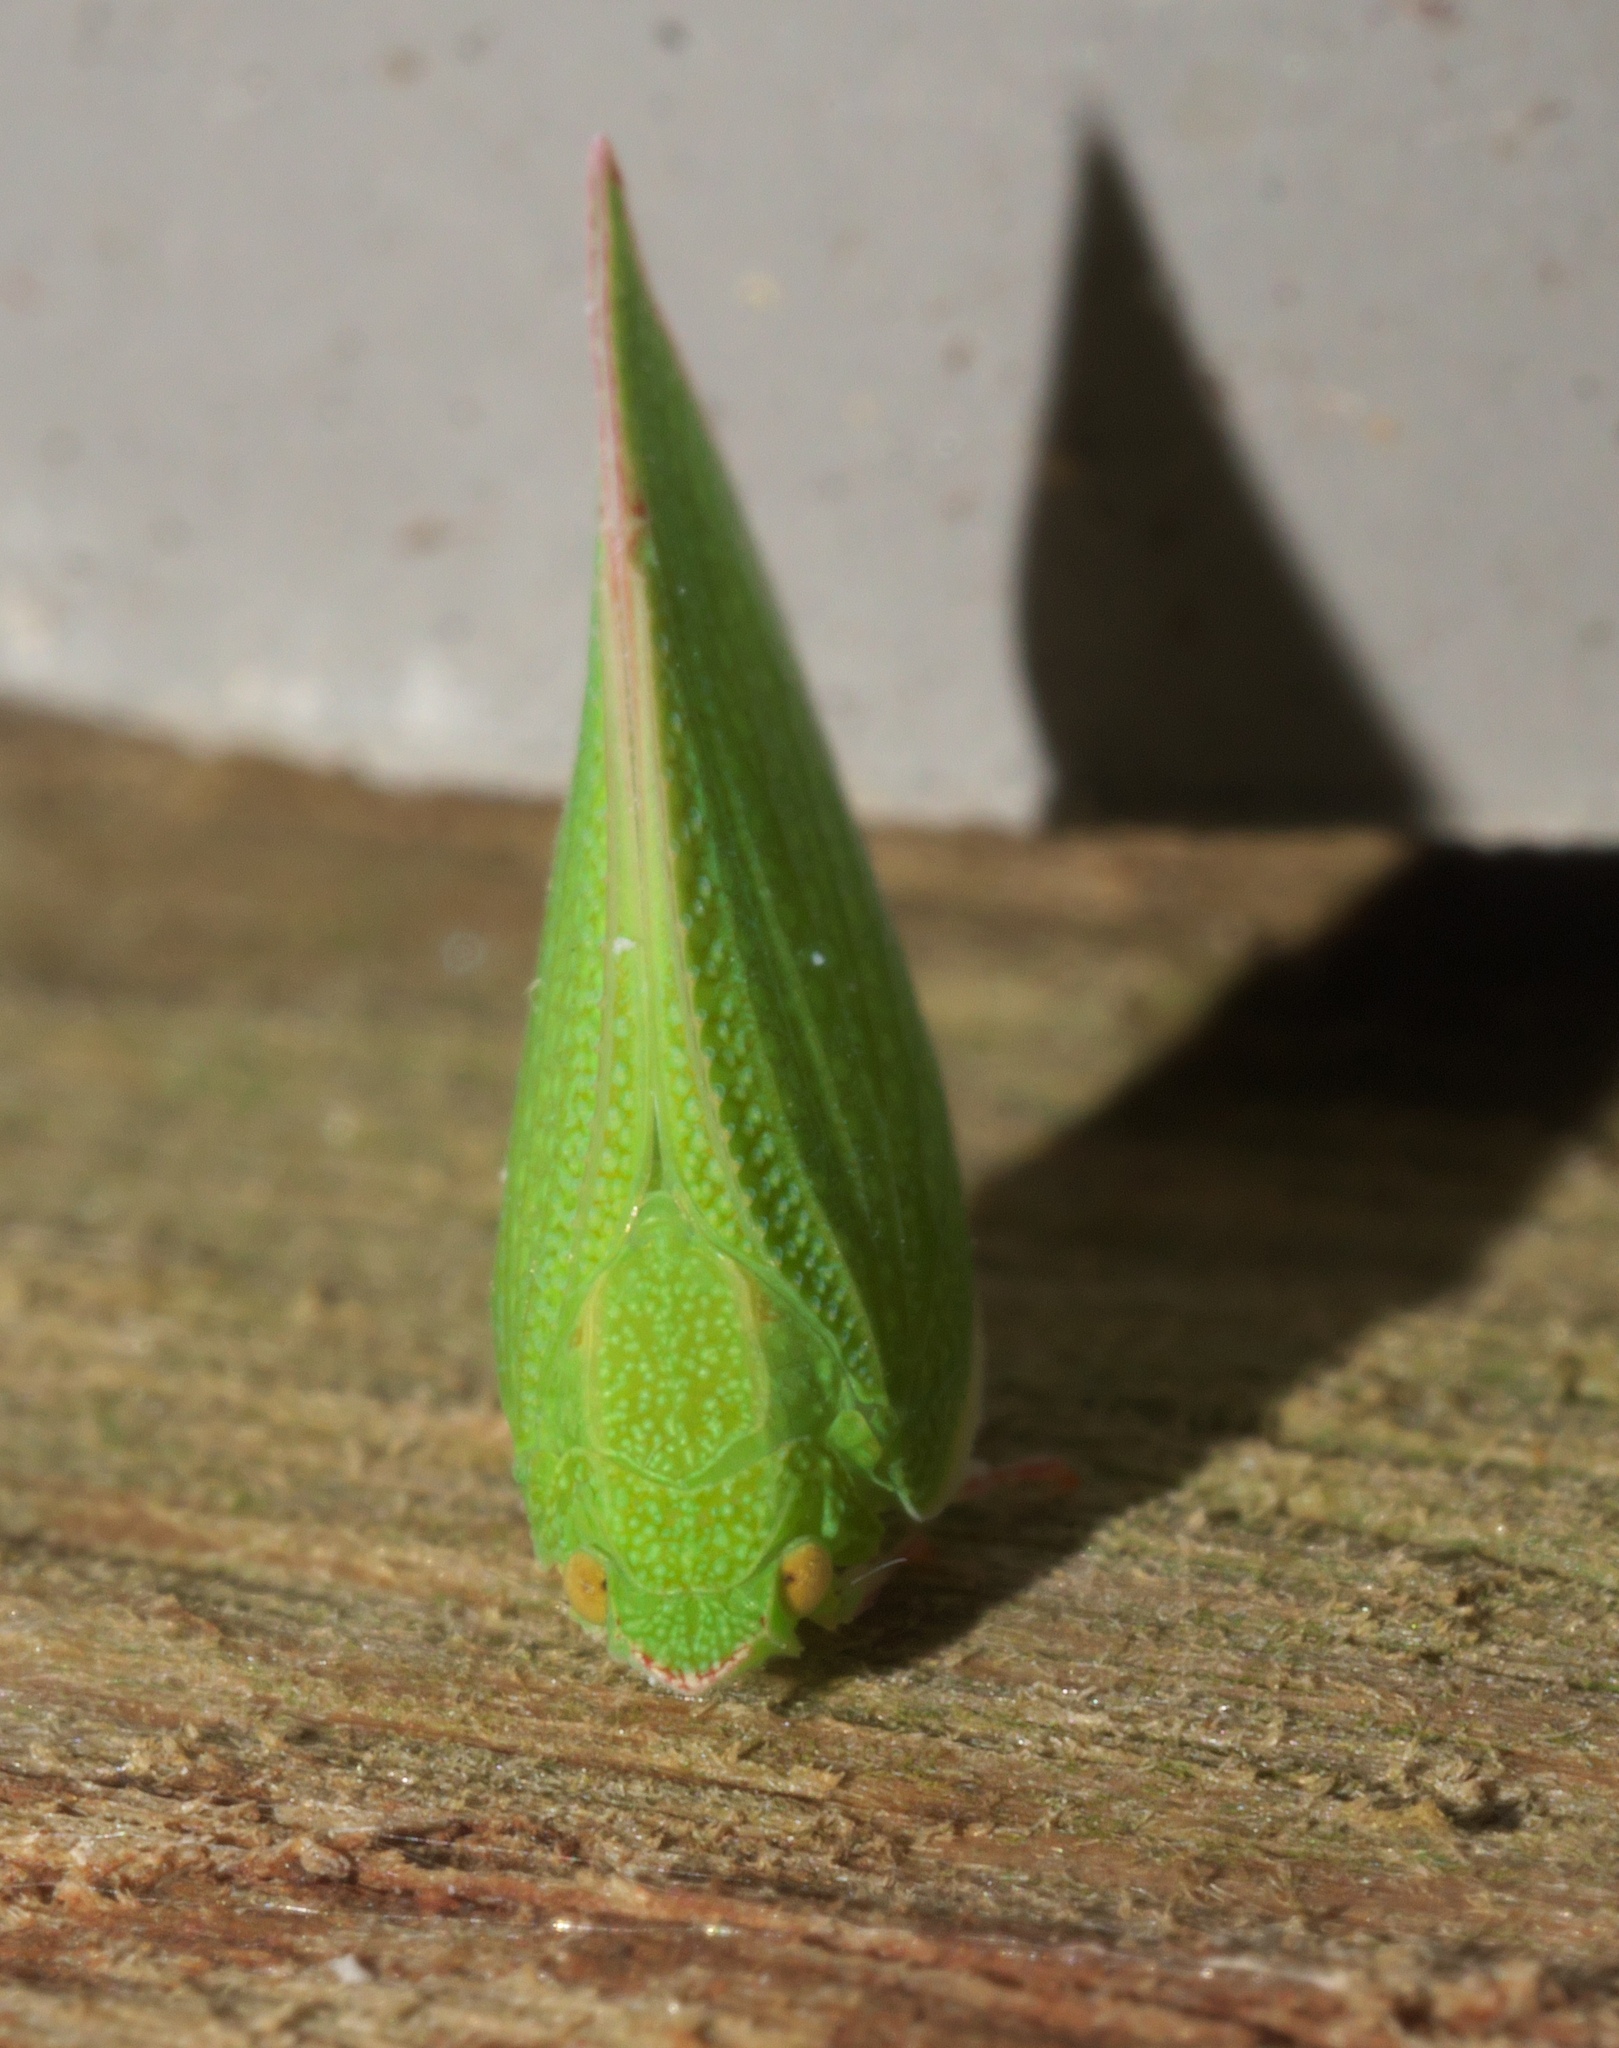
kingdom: Animalia
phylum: Arthropoda
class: Insecta
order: Hemiptera
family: Flatidae
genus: Siphanta
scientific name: Siphanta acuta
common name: Torpedo bug
